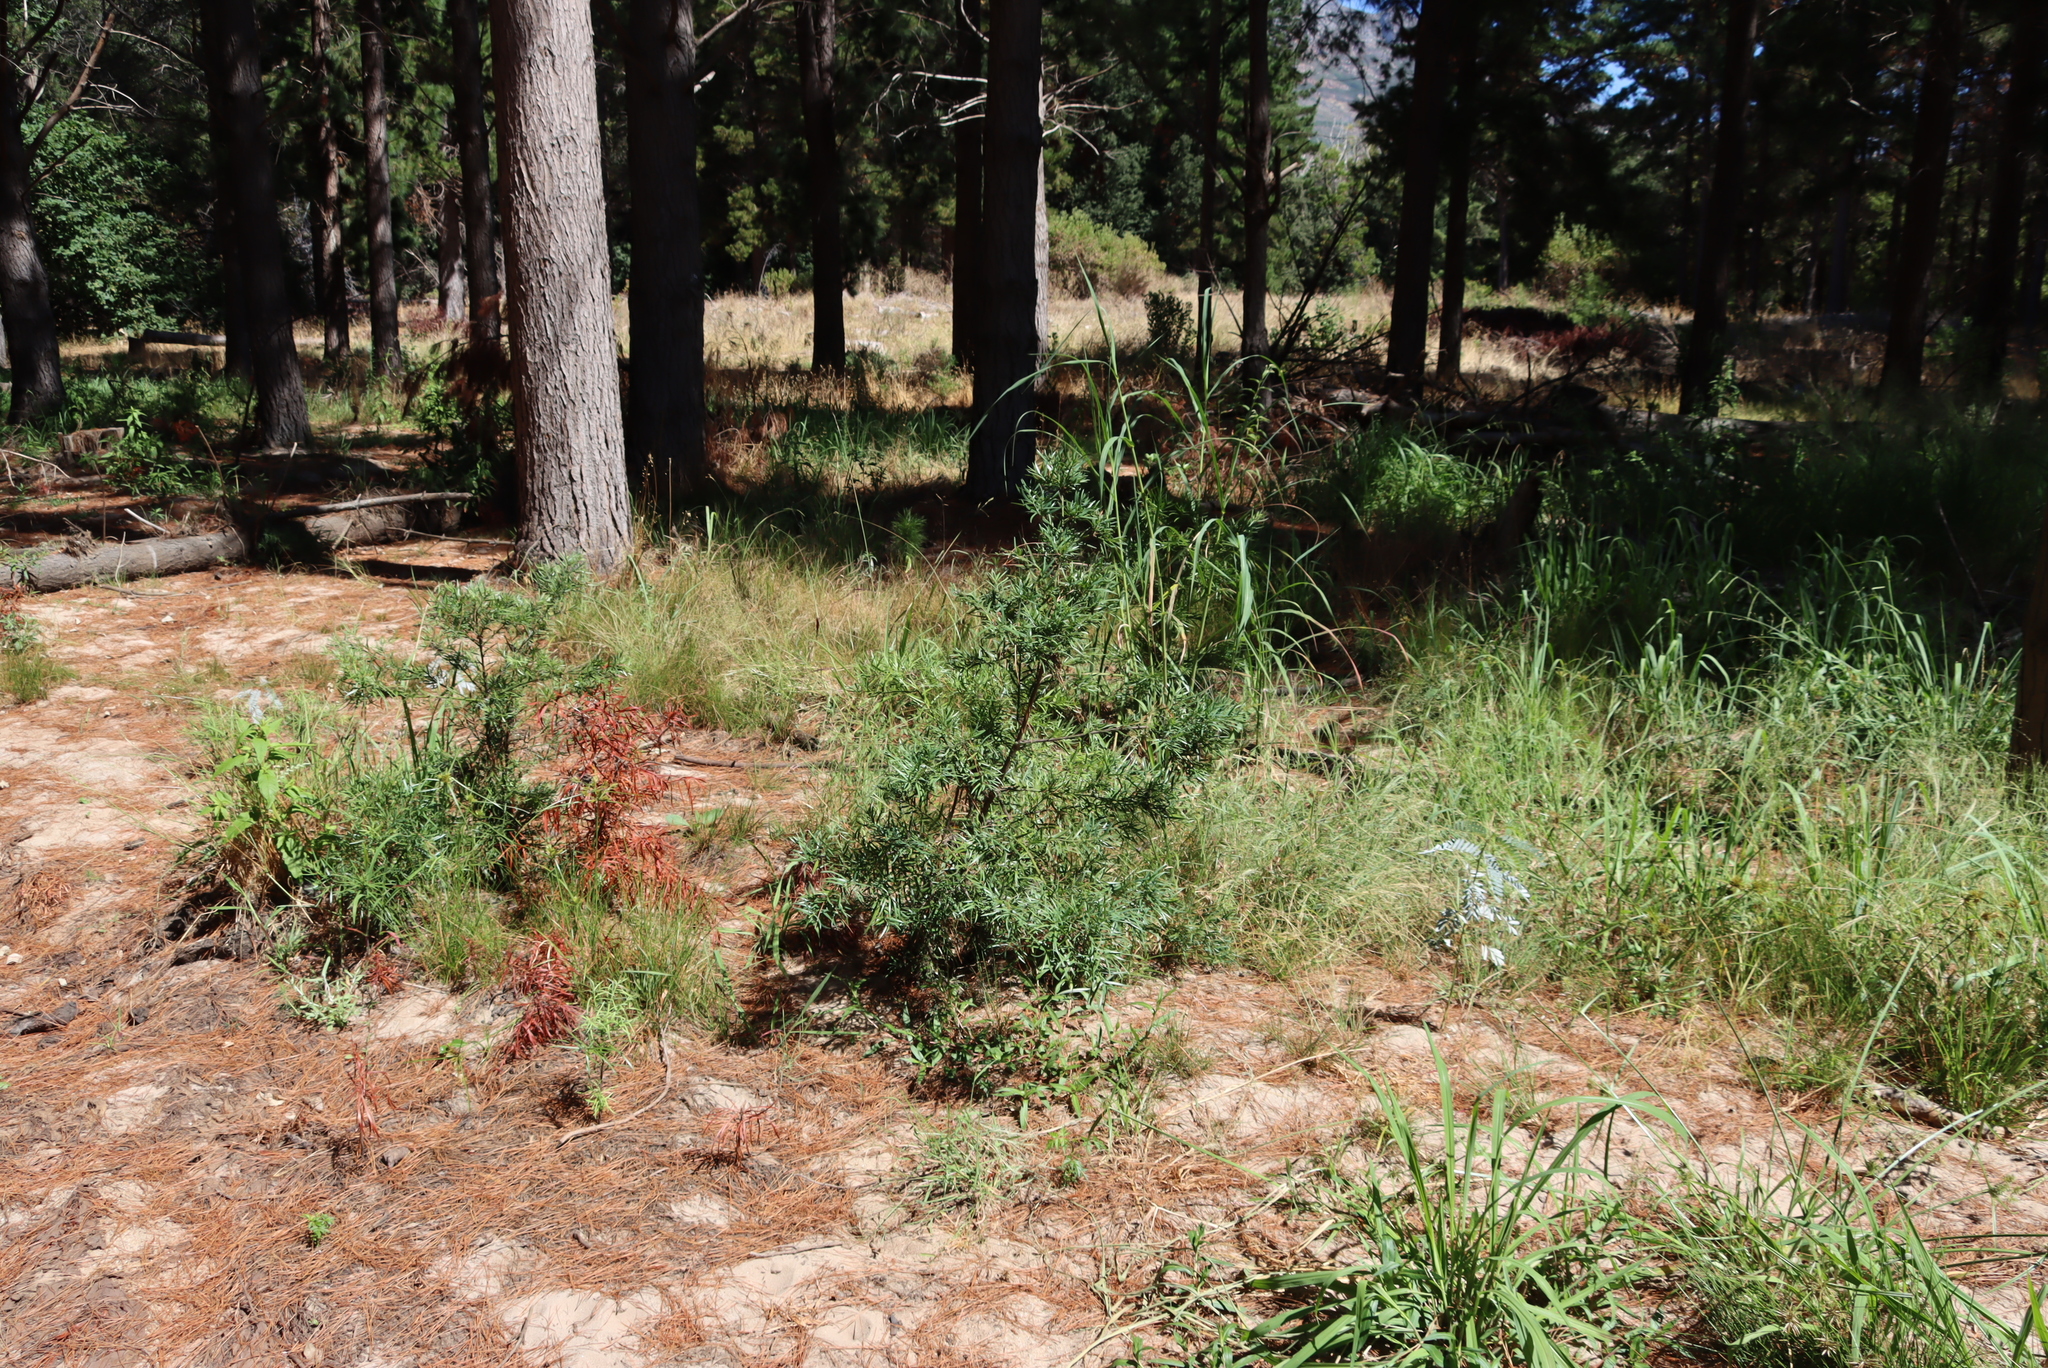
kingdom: Plantae
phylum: Tracheophyta
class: Pinopsida
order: Pinales
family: Podocarpaceae
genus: Afrocarpus
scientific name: Afrocarpus falcatus
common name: Bastard yellowwood
